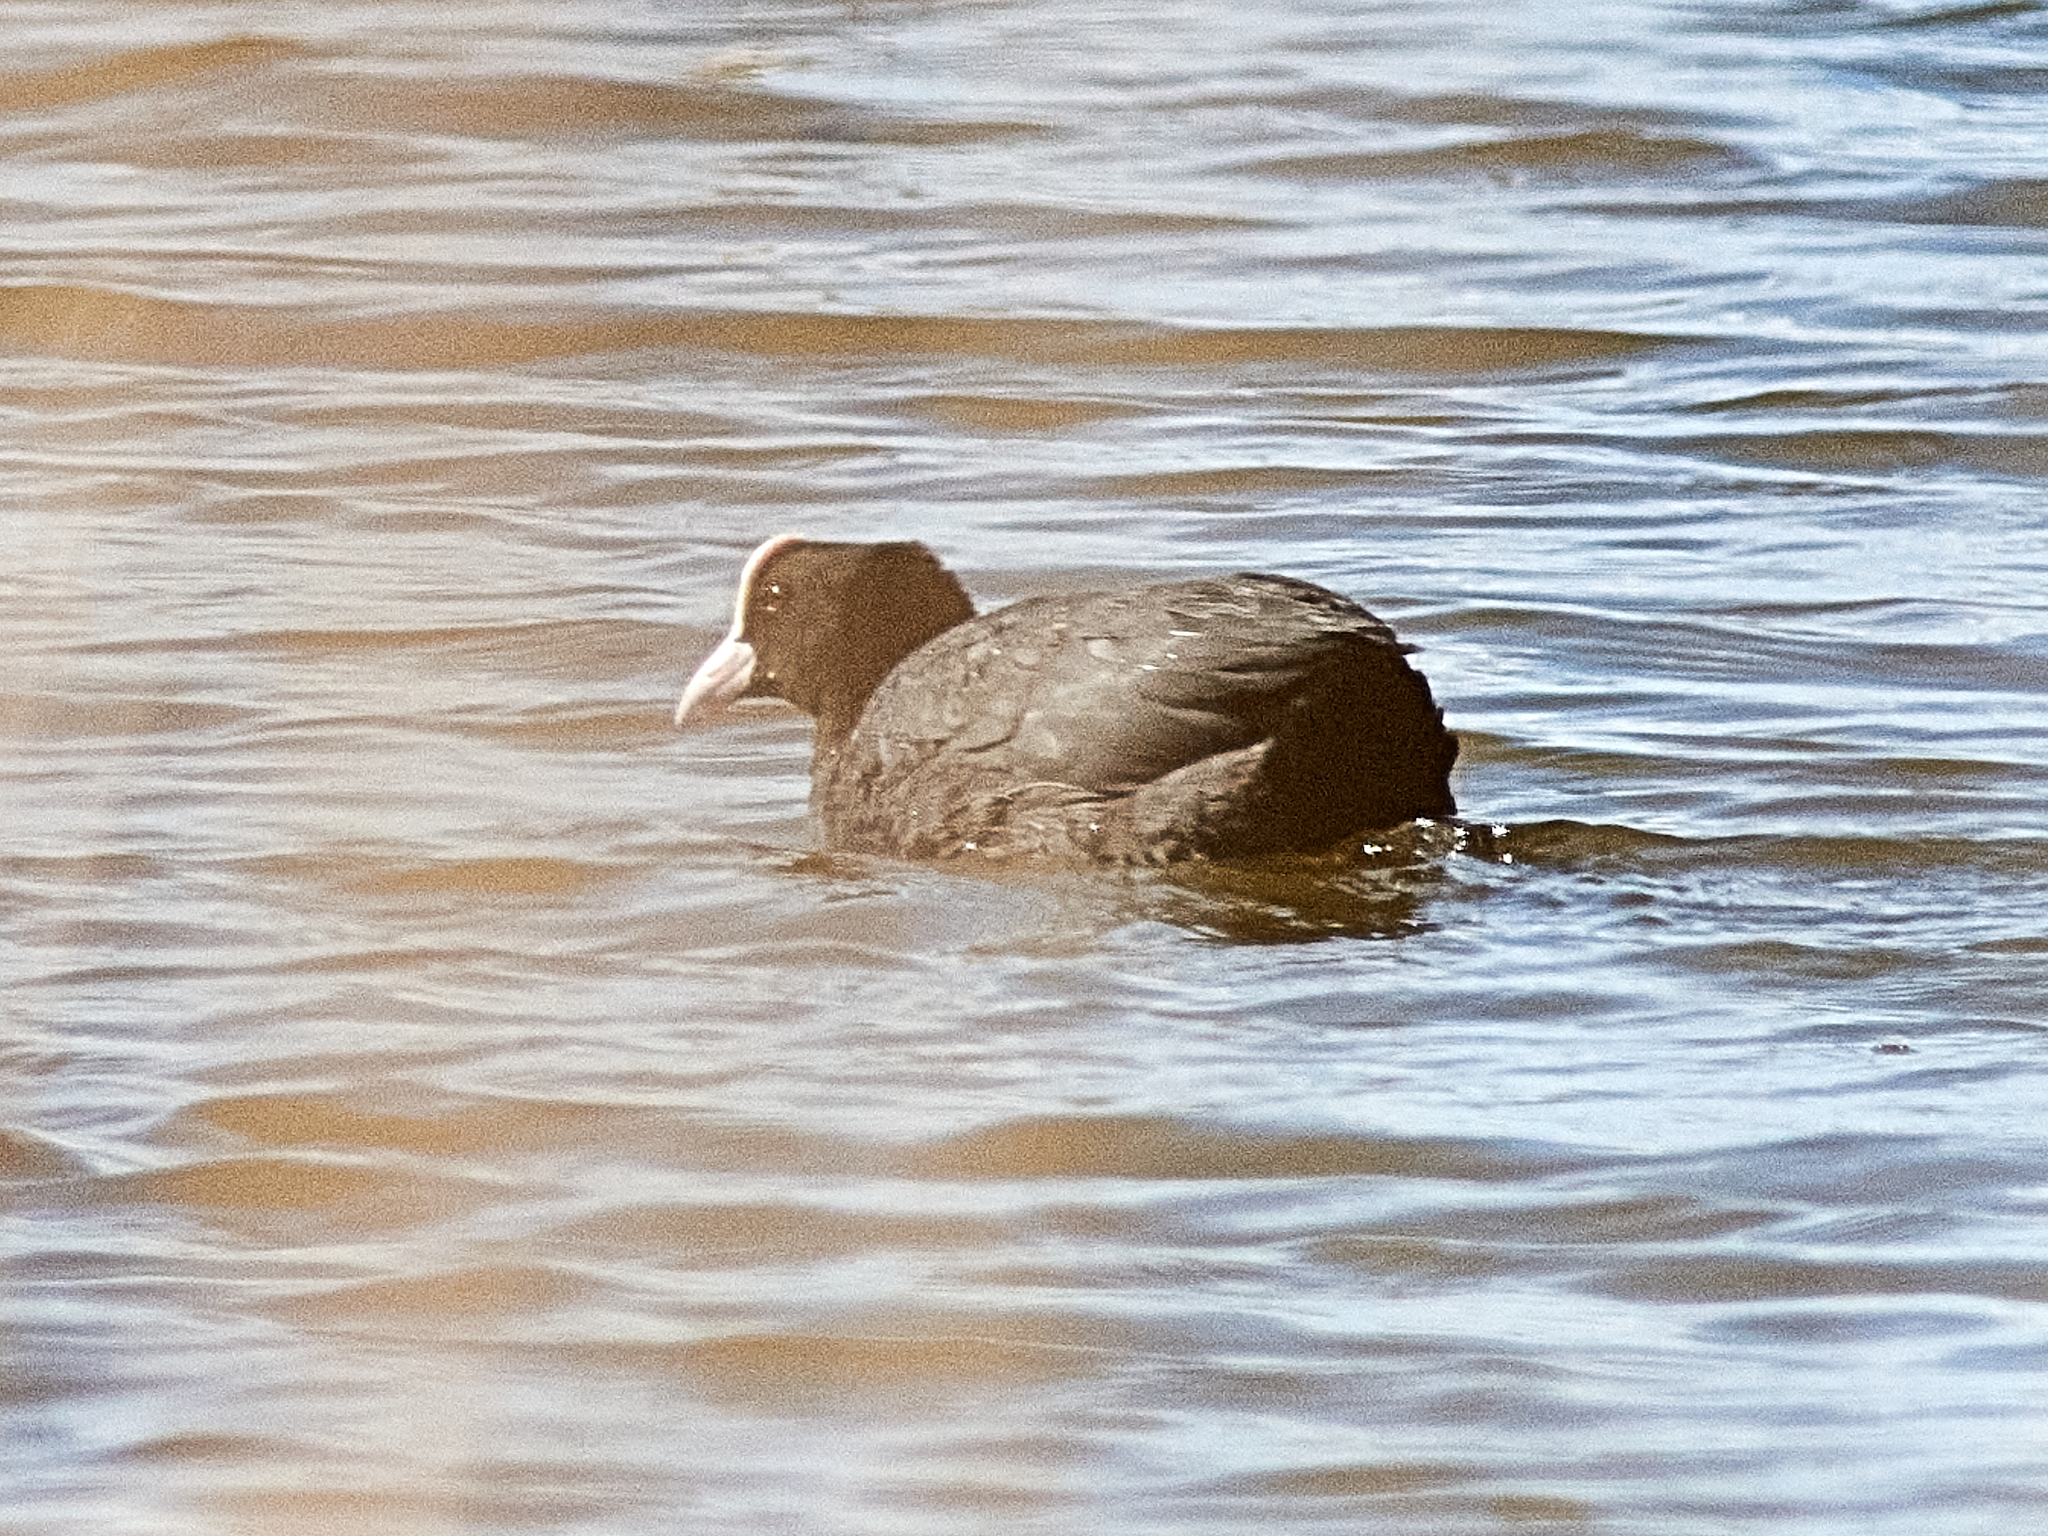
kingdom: Animalia
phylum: Chordata
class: Aves
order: Gruiformes
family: Rallidae
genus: Fulica
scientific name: Fulica atra
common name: Eurasian coot
